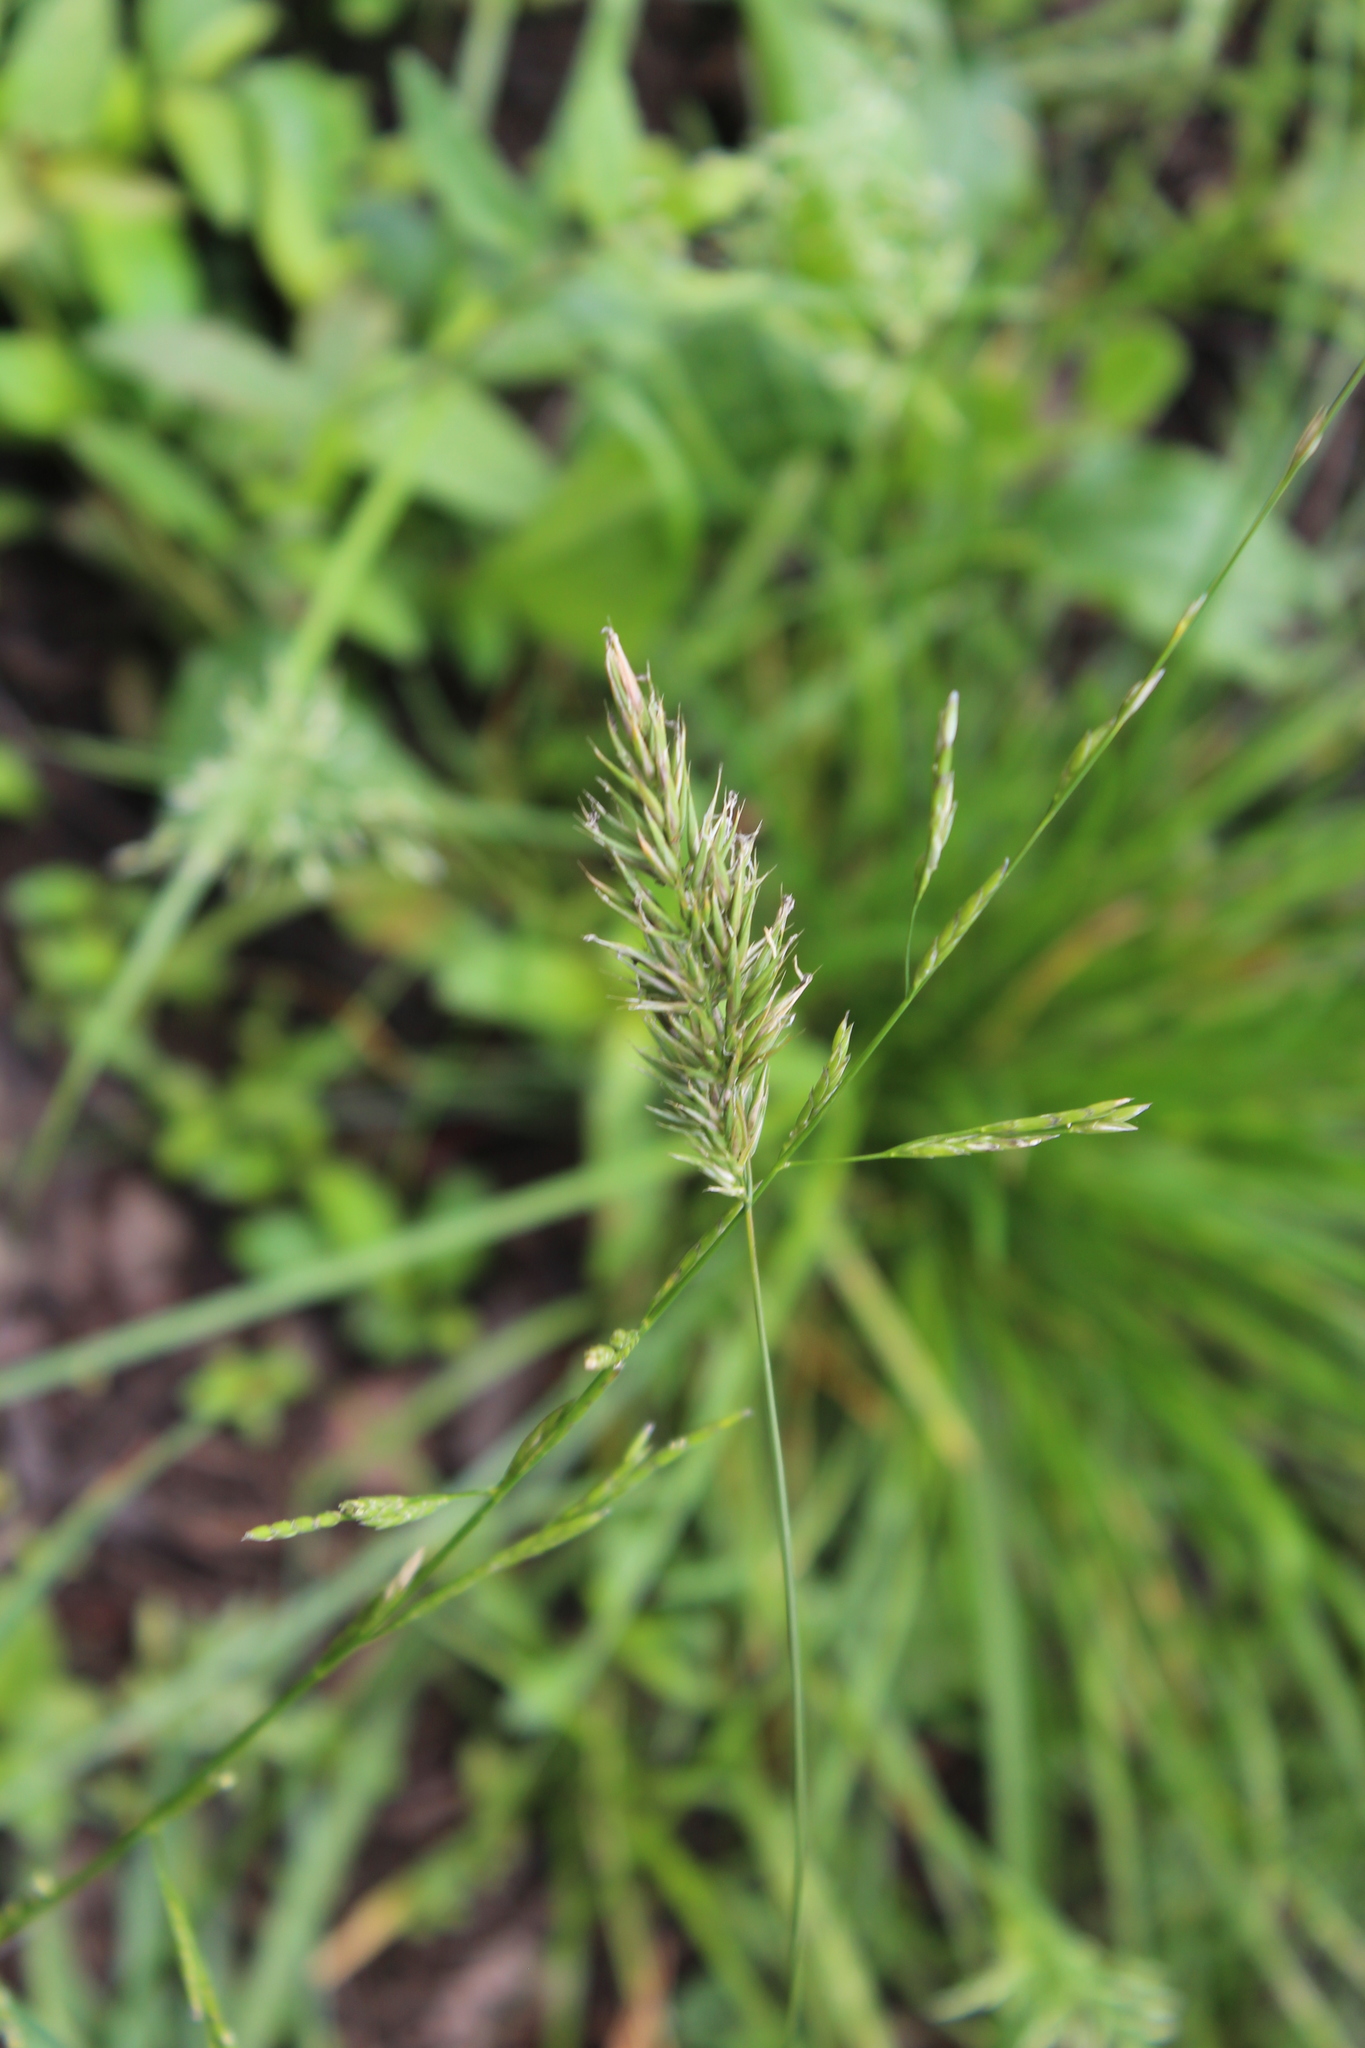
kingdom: Plantae
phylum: Tracheophyta
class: Liliopsida
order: Poales
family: Poaceae
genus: Anthoxanthum
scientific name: Anthoxanthum odoratum
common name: Sweet vernalgrass
